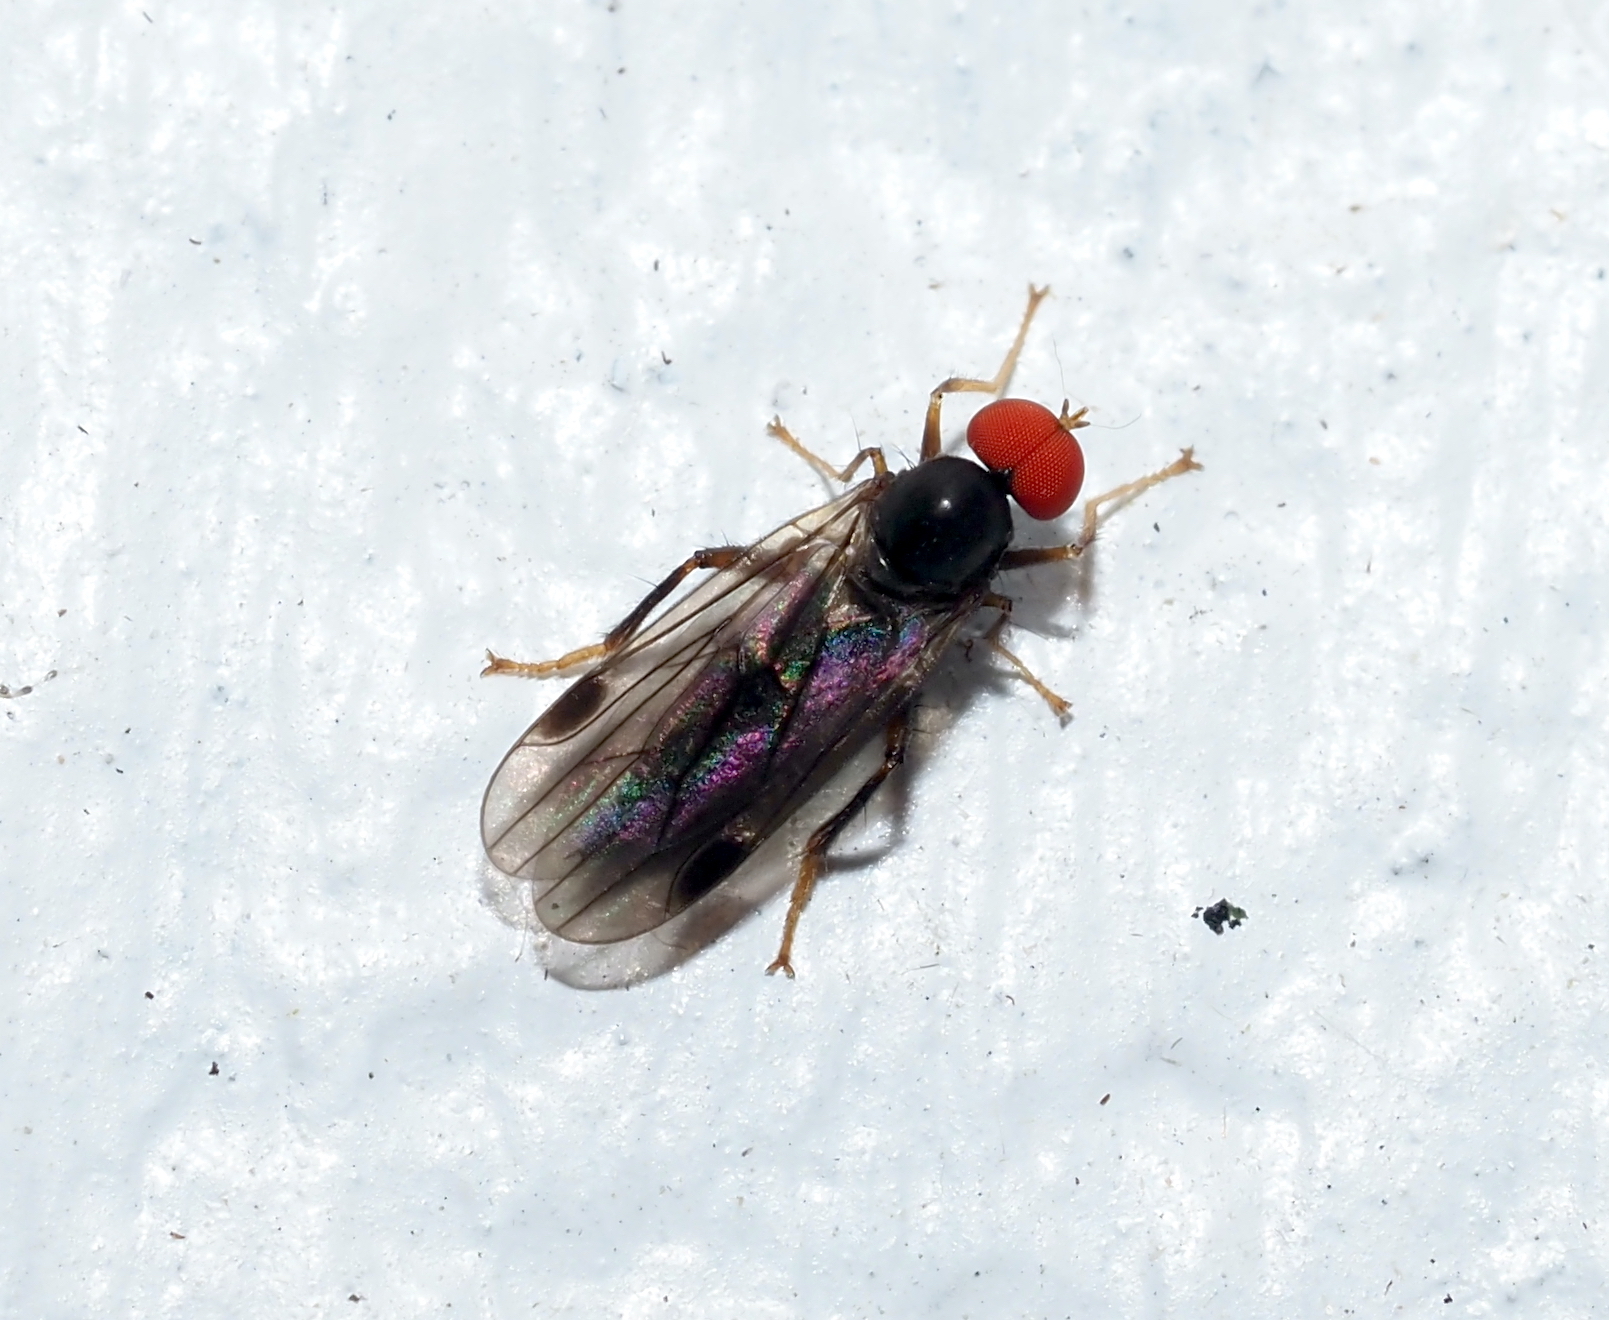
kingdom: Animalia
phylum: Arthropoda
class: Insecta
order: Diptera
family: Hybotidae
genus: Syneches
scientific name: Syneches thoracicus
